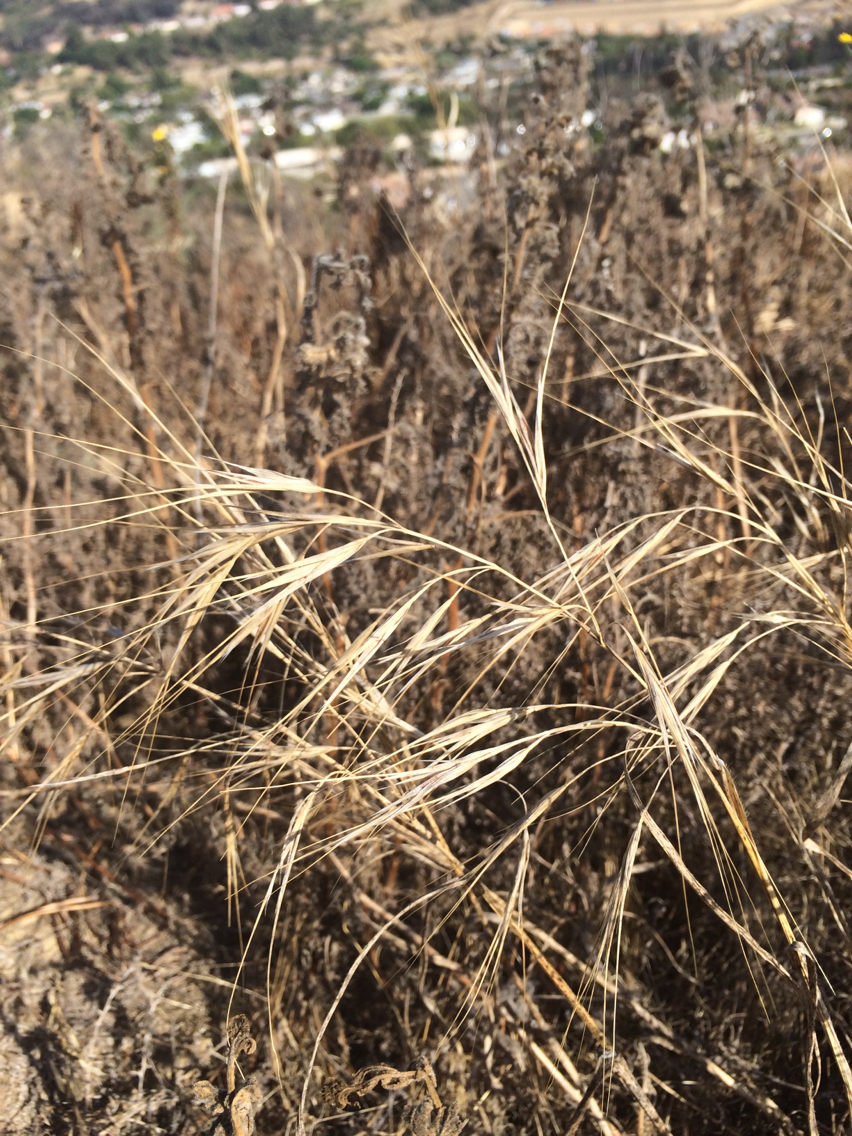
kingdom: Plantae
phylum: Tracheophyta
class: Liliopsida
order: Poales
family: Poaceae
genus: Bromus
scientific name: Bromus diandrus
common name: Ripgut brome
